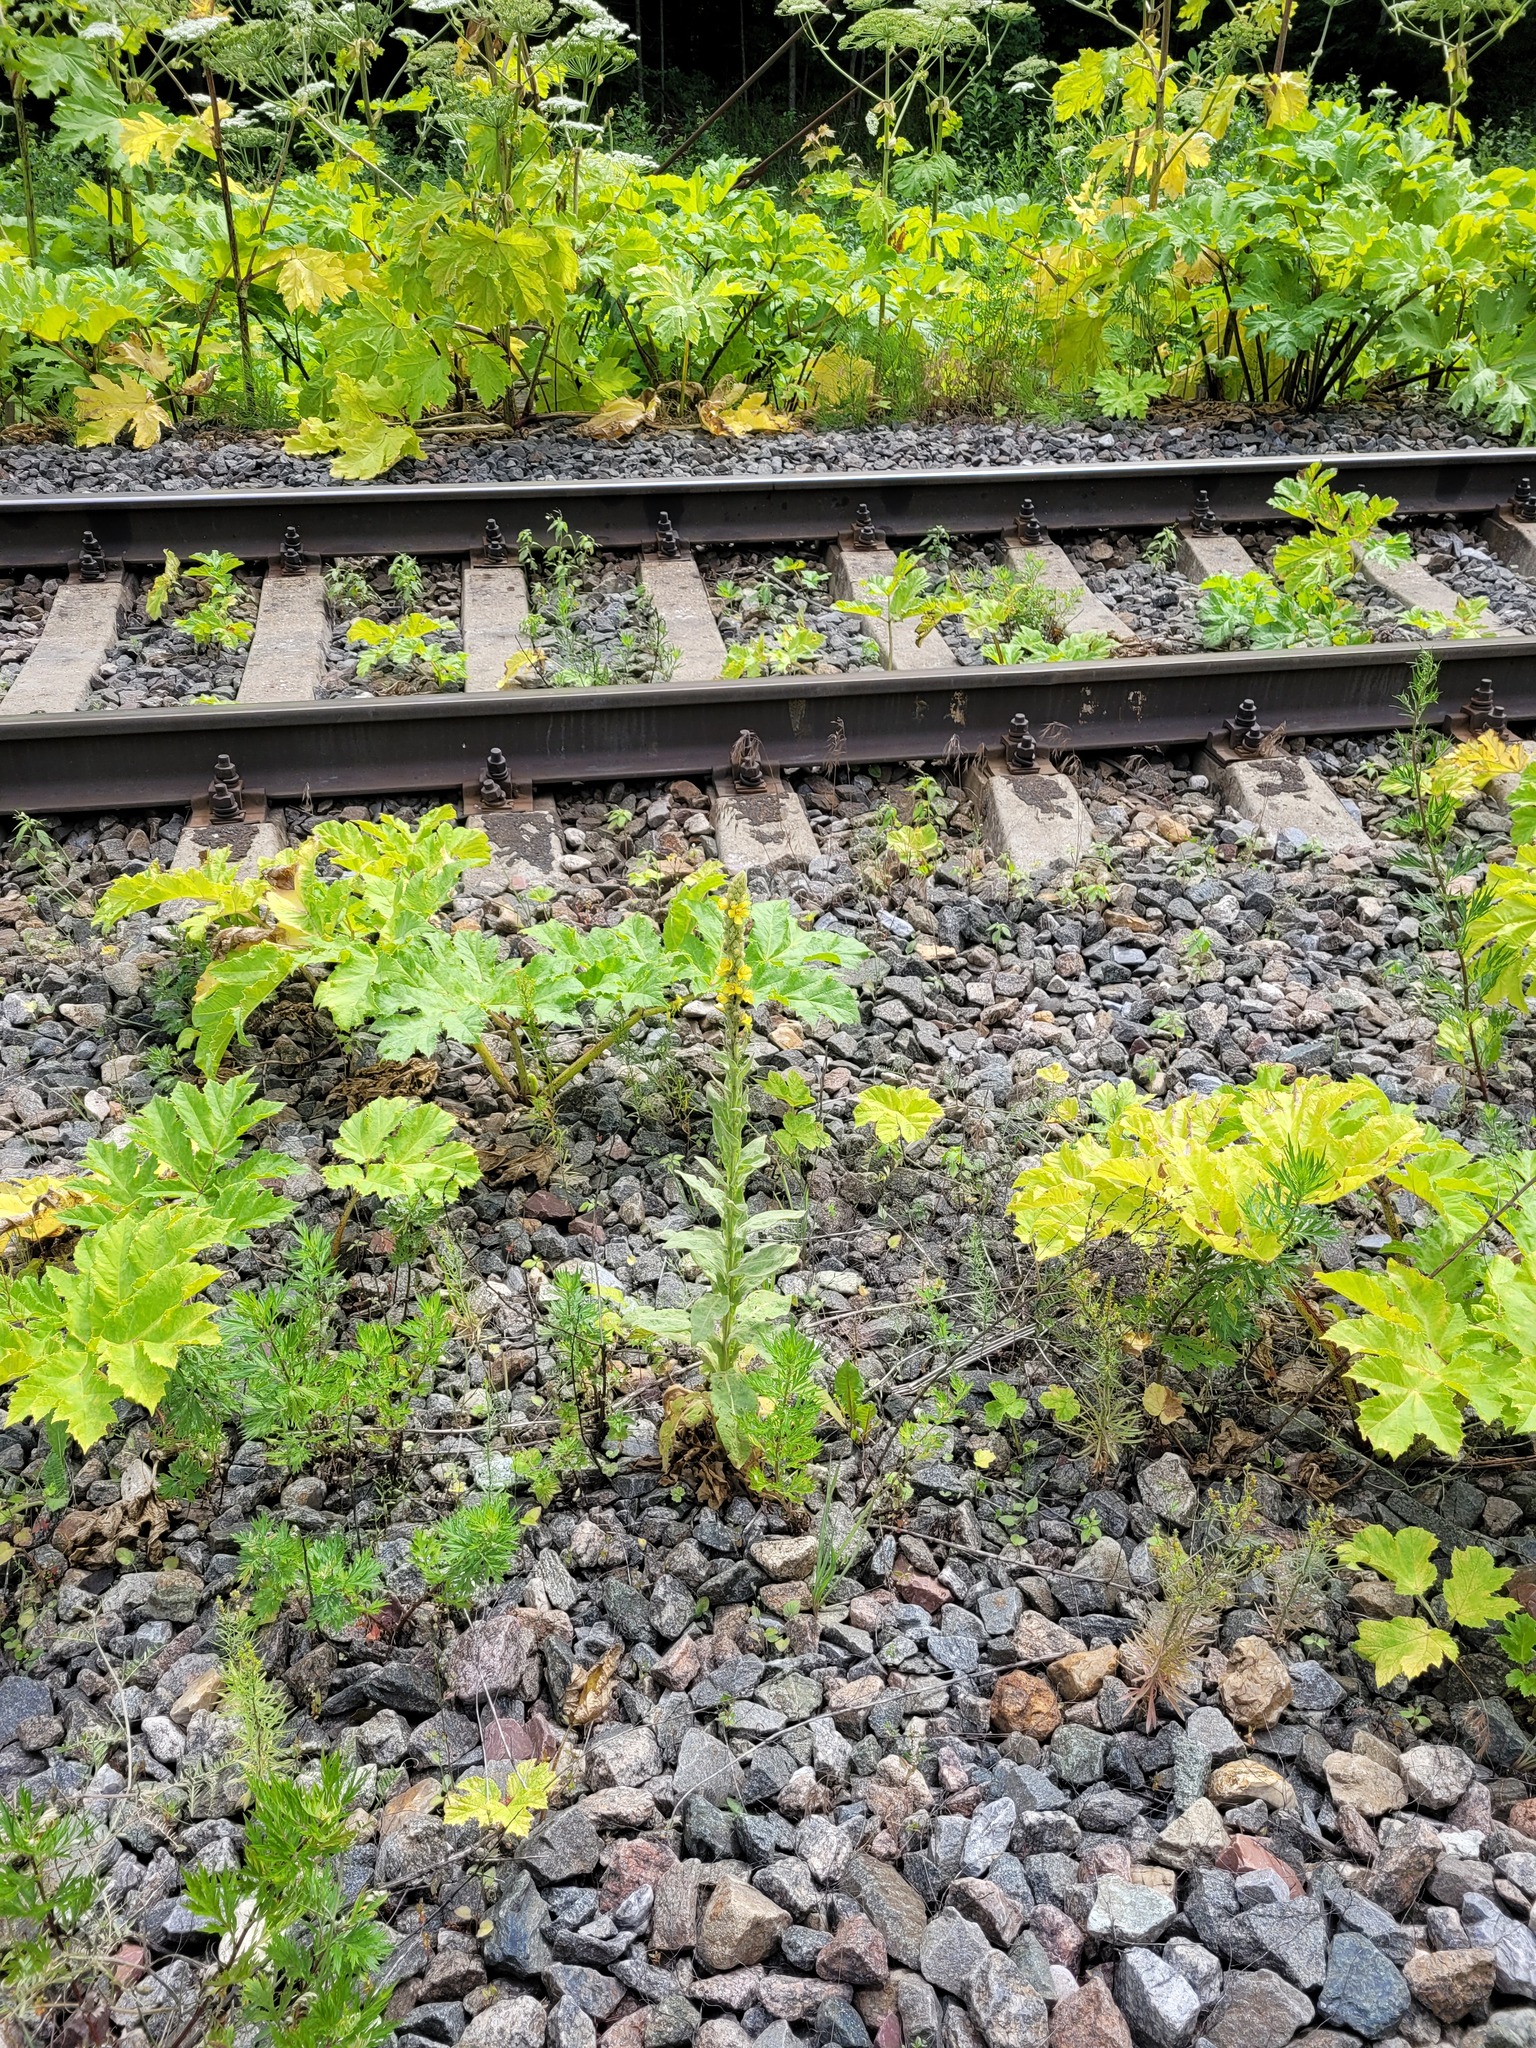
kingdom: Plantae
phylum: Tracheophyta
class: Magnoliopsida
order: Lamiales
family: Scrophulariaceae
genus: Verbascum
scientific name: Verbascum thapsus
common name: Common mullein
